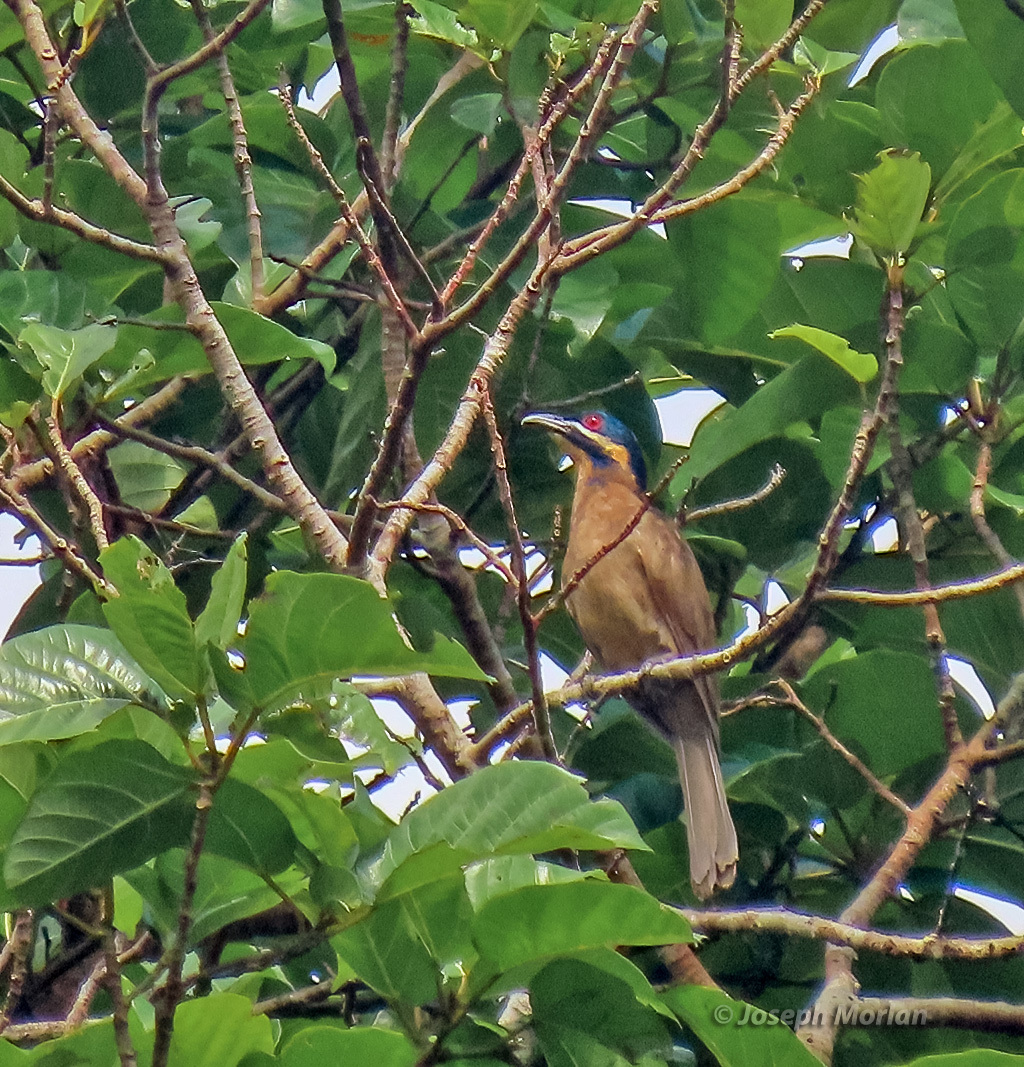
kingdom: Animalia
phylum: Chordata
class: Aves
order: Cuculiformes
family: Cuculidae
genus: Microdynamis
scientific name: Microdynamis parva
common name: Dwarf koel
